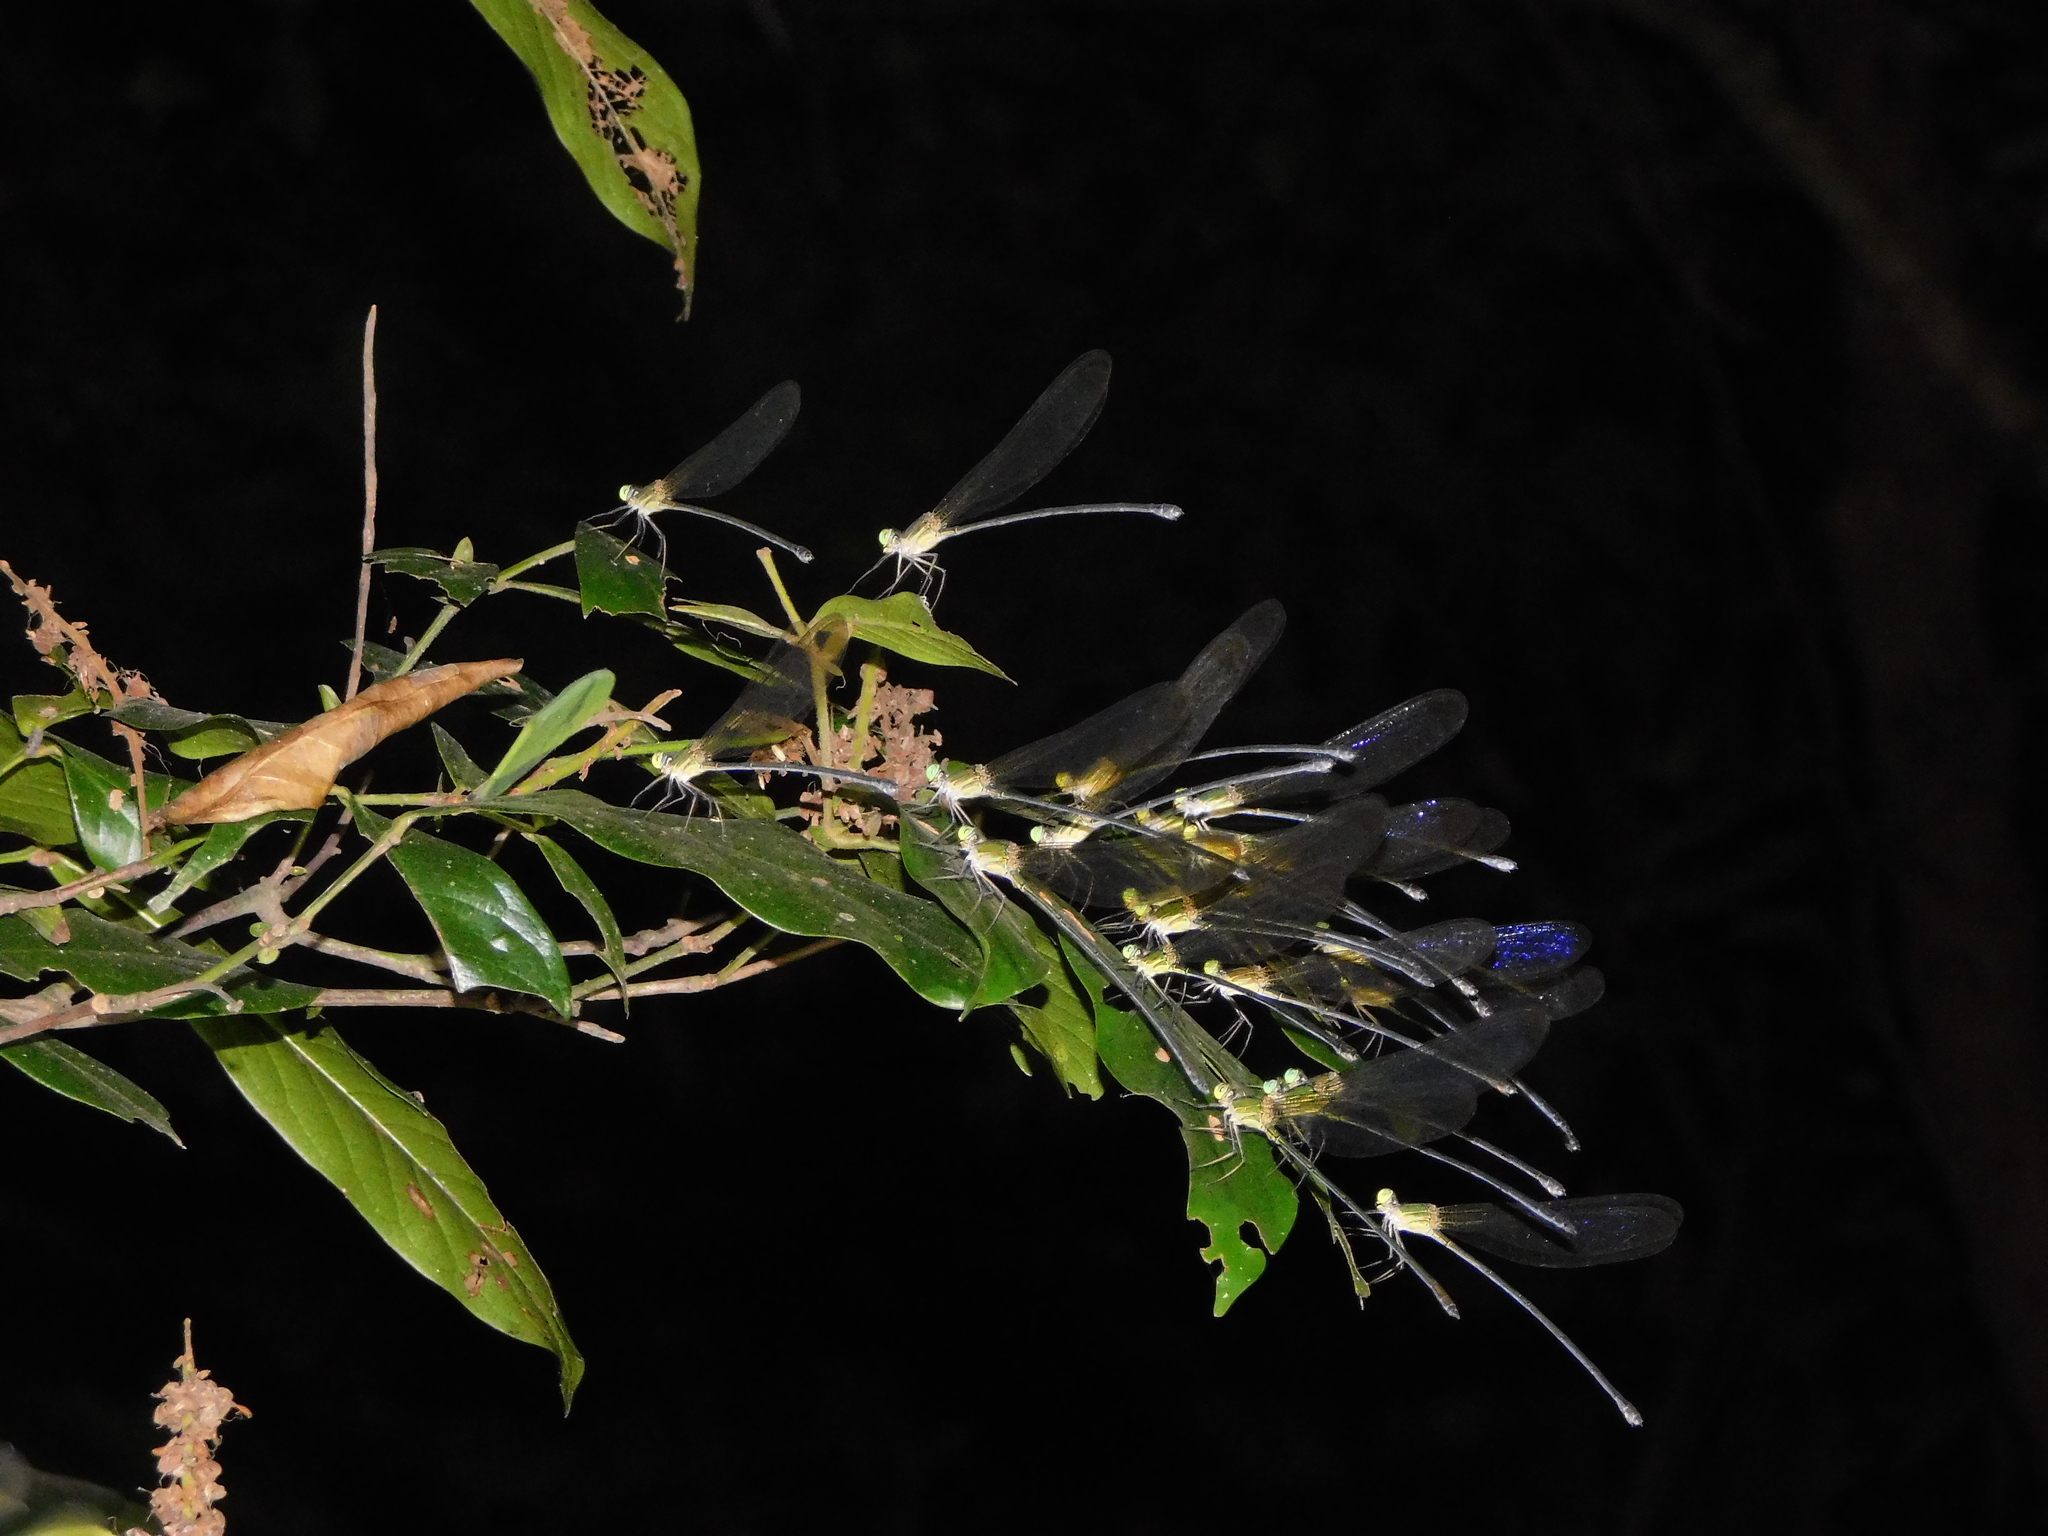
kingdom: Animalia
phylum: Arthropoda
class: Insecta
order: Odonata
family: Calopterygidae
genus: Vestalis
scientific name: Vestalis gracilis
